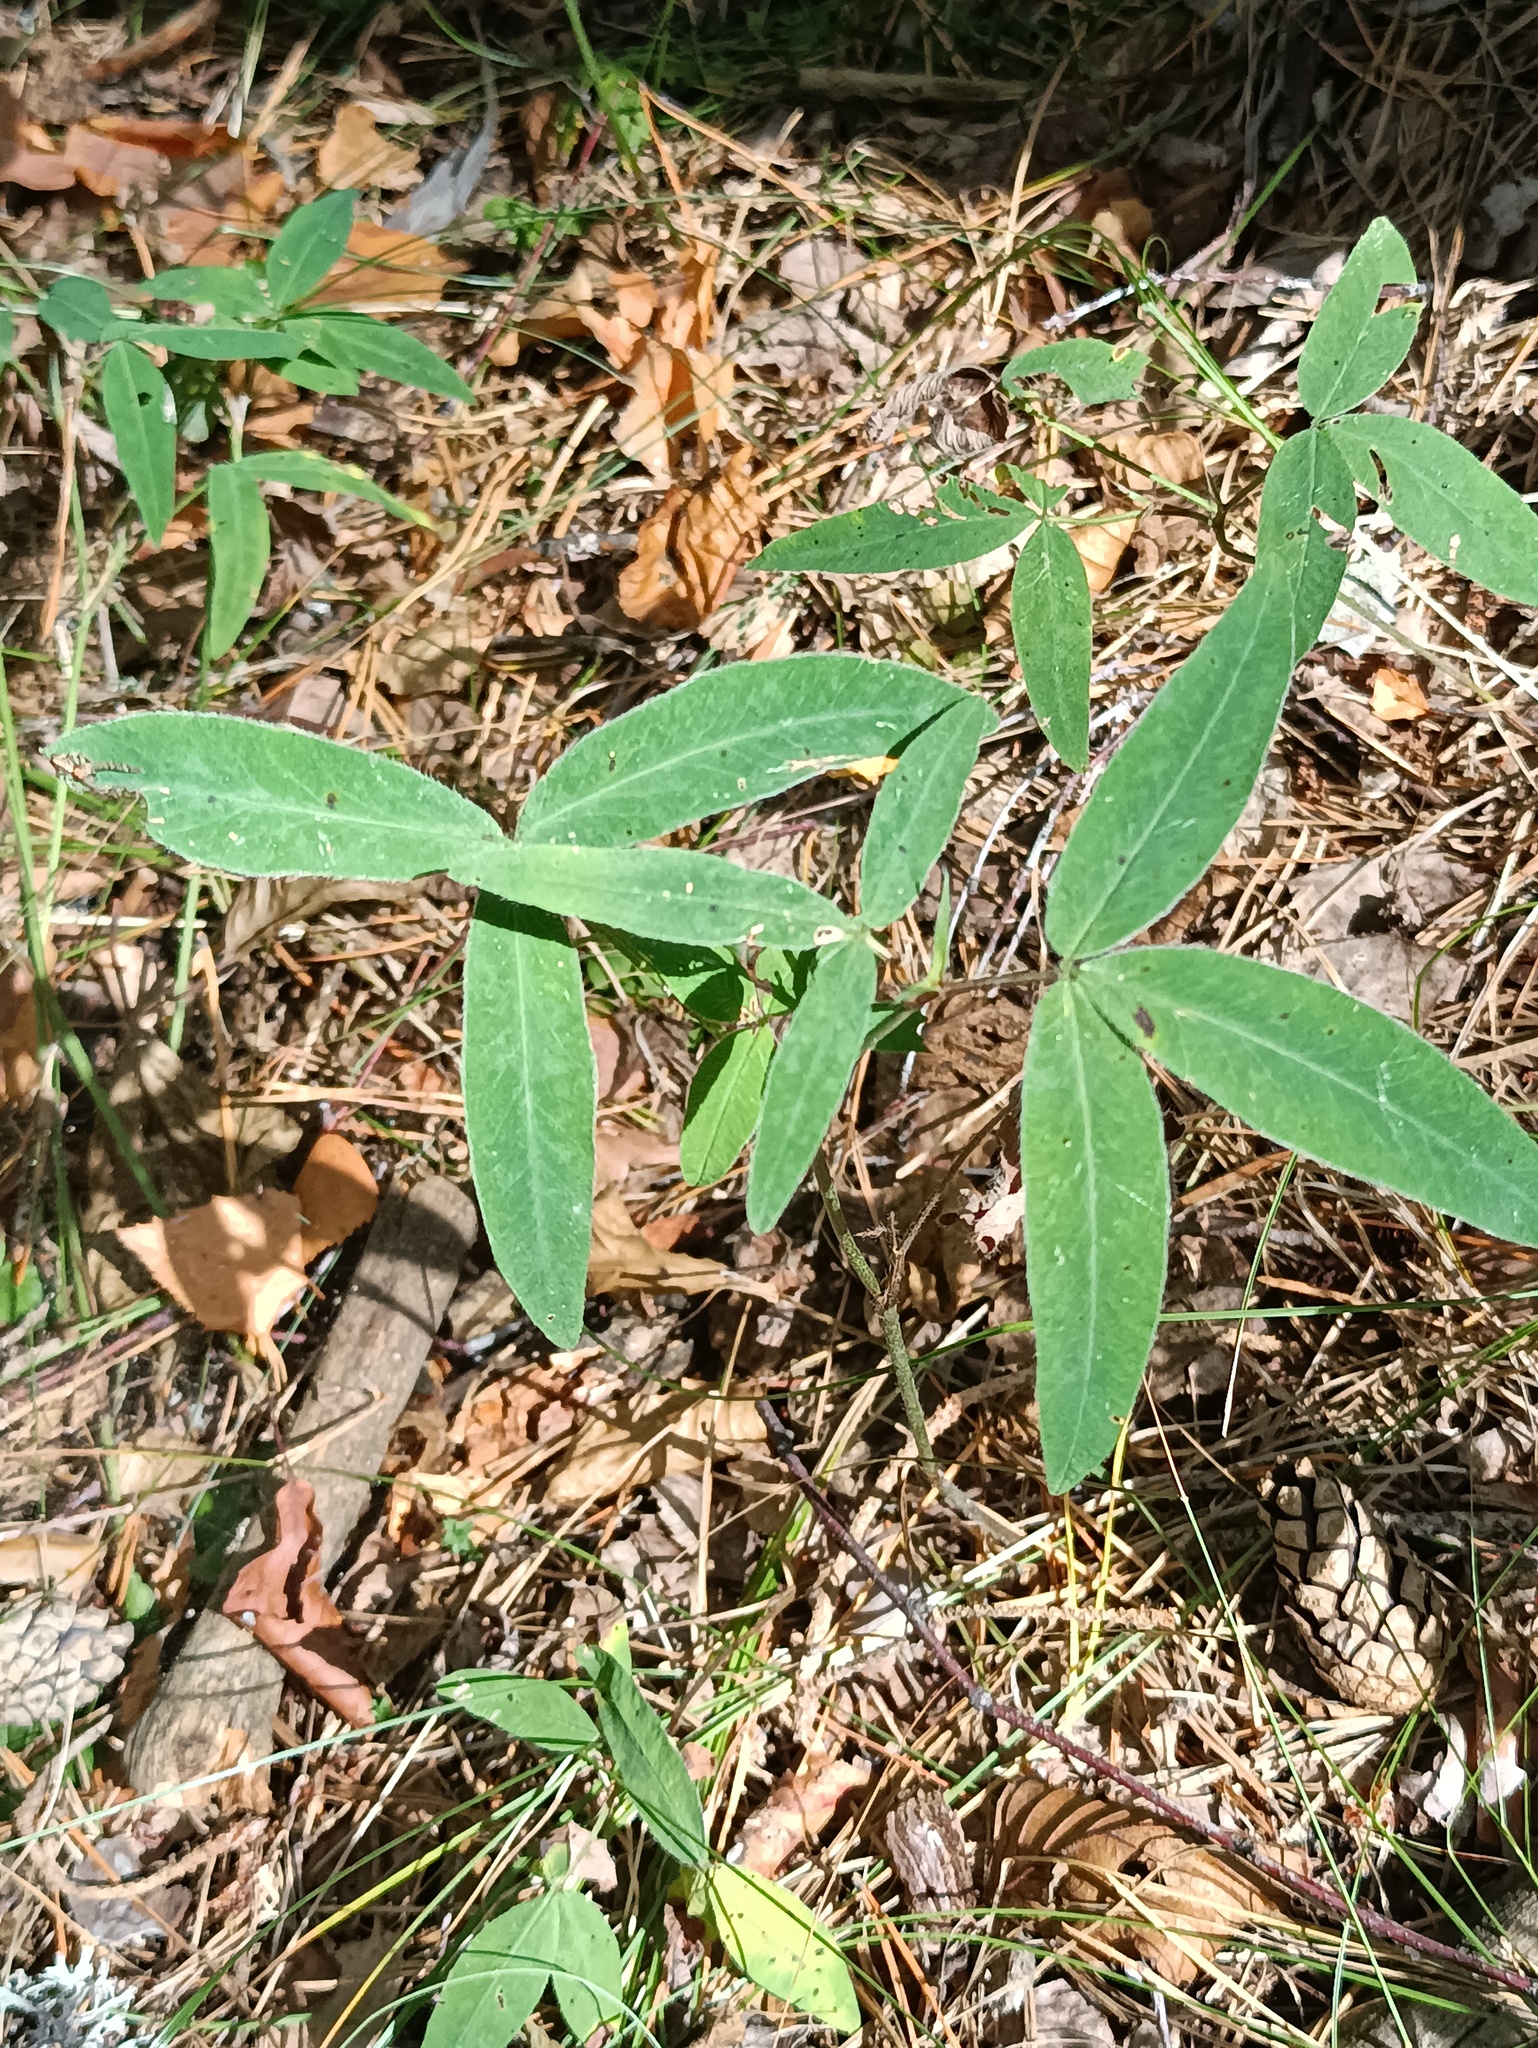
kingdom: Plantae
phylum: Tracheophyta
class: Magnoliopsida
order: Fabales
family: Fabaceae
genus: Trifolium
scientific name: Trifolium medium
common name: Zigzag clover
